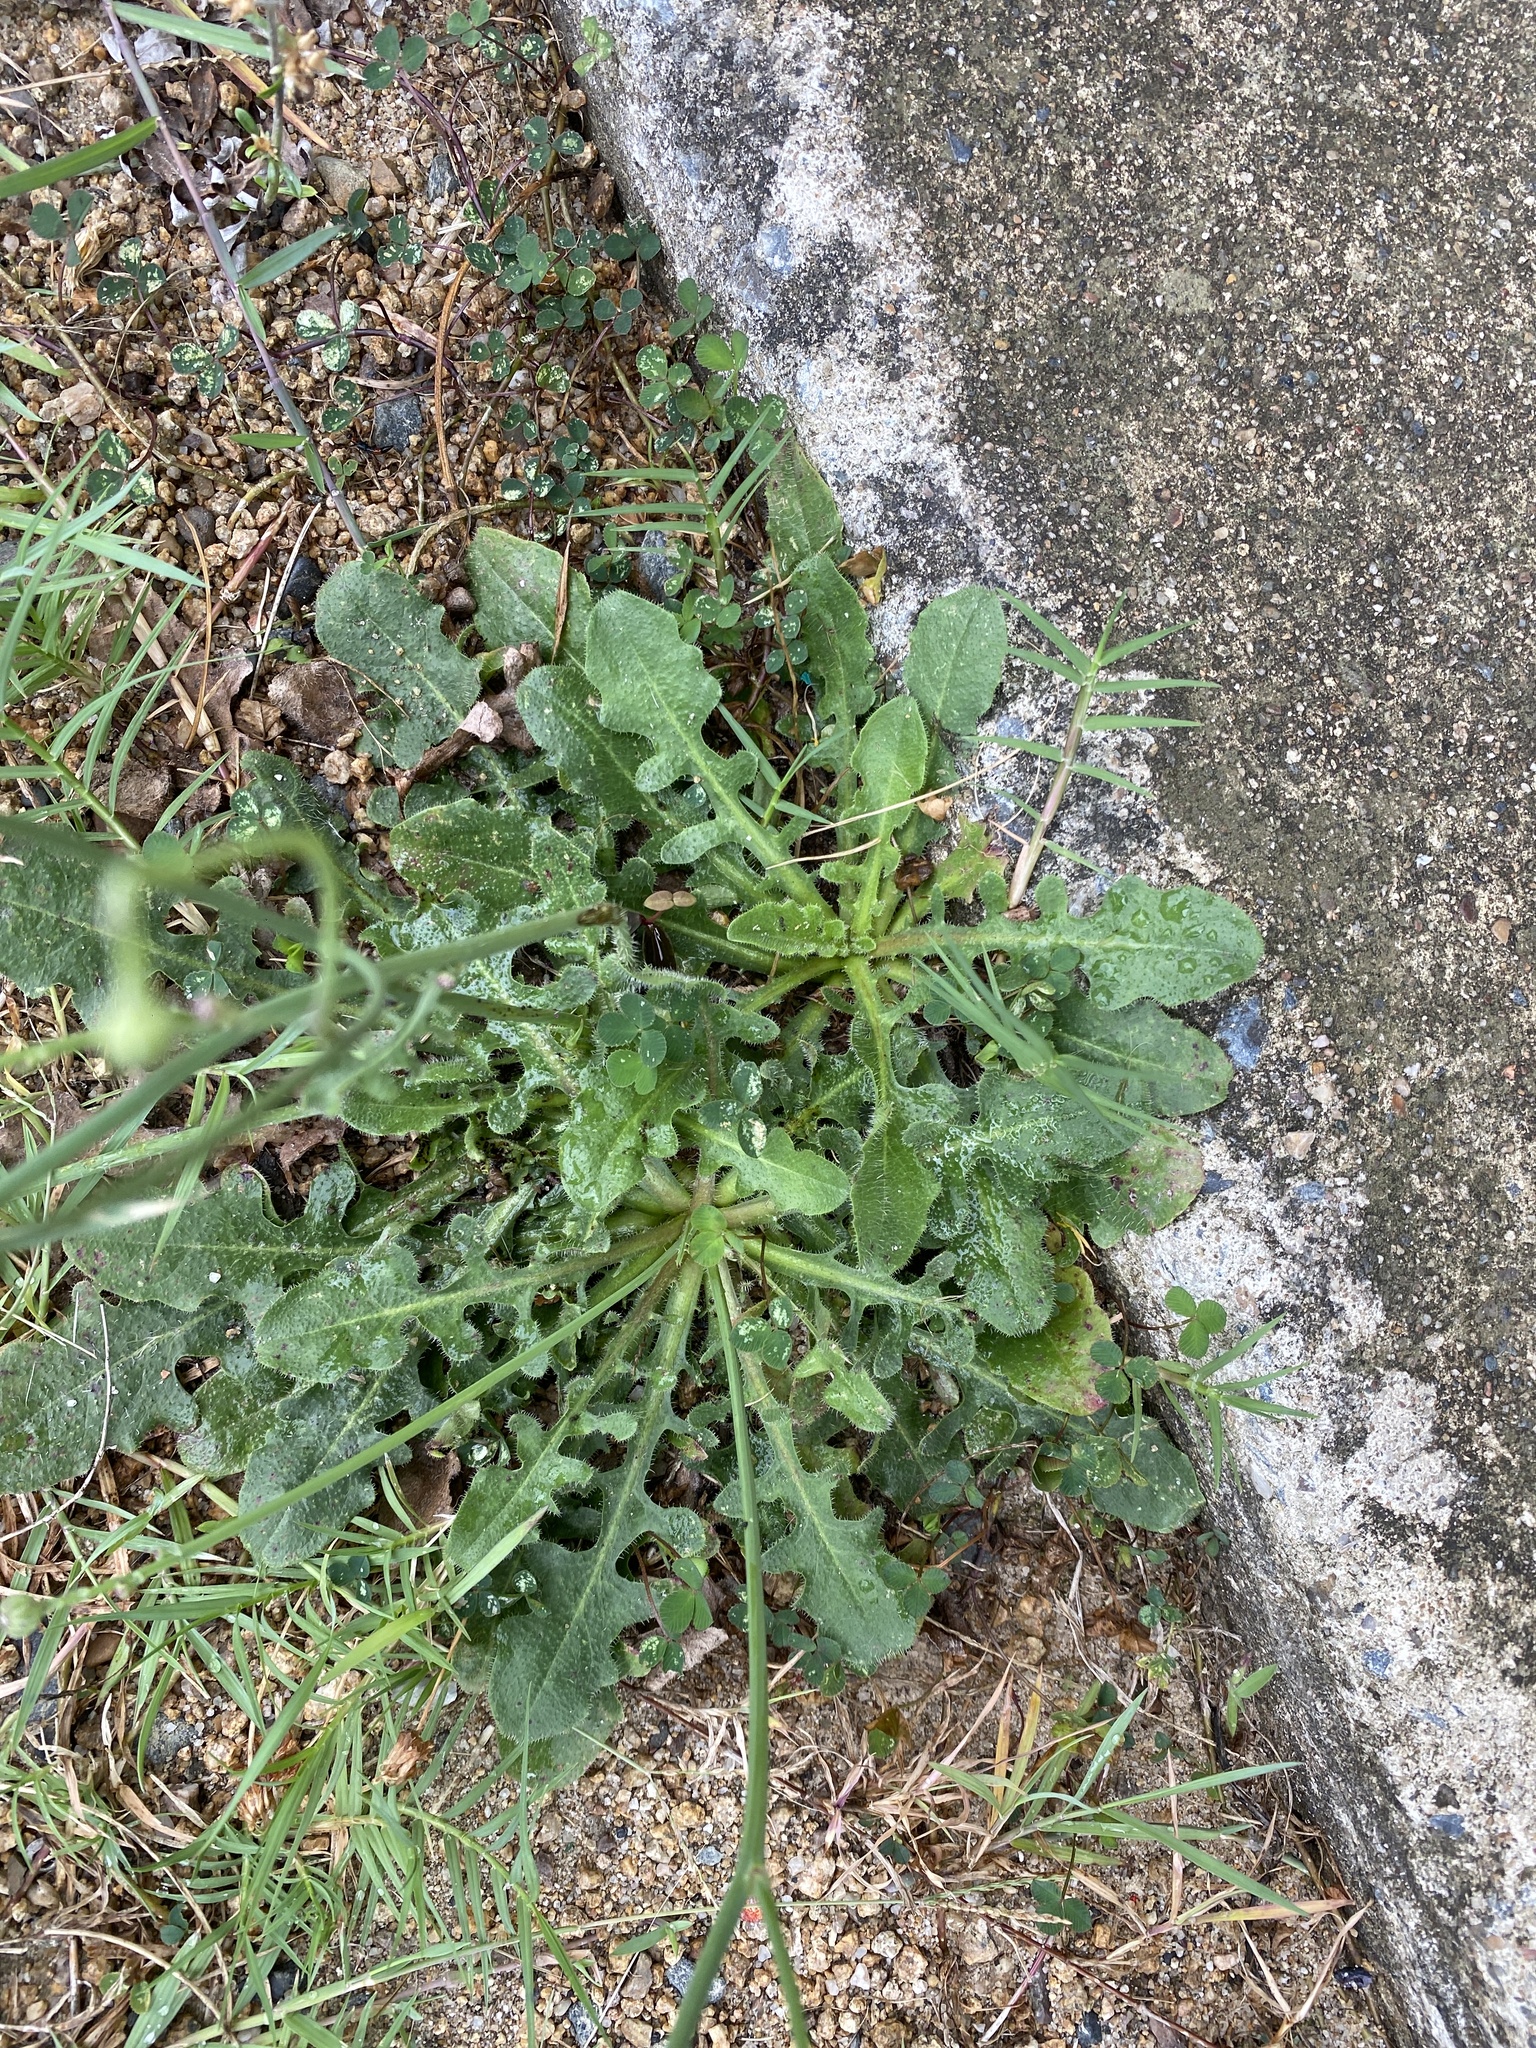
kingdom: Plantae
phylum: Tracheophyta
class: Magnoliopsida
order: Asterales
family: Asteraceae
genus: Hypochaeris
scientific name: Hypochaeris radicata
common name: Flatweed
